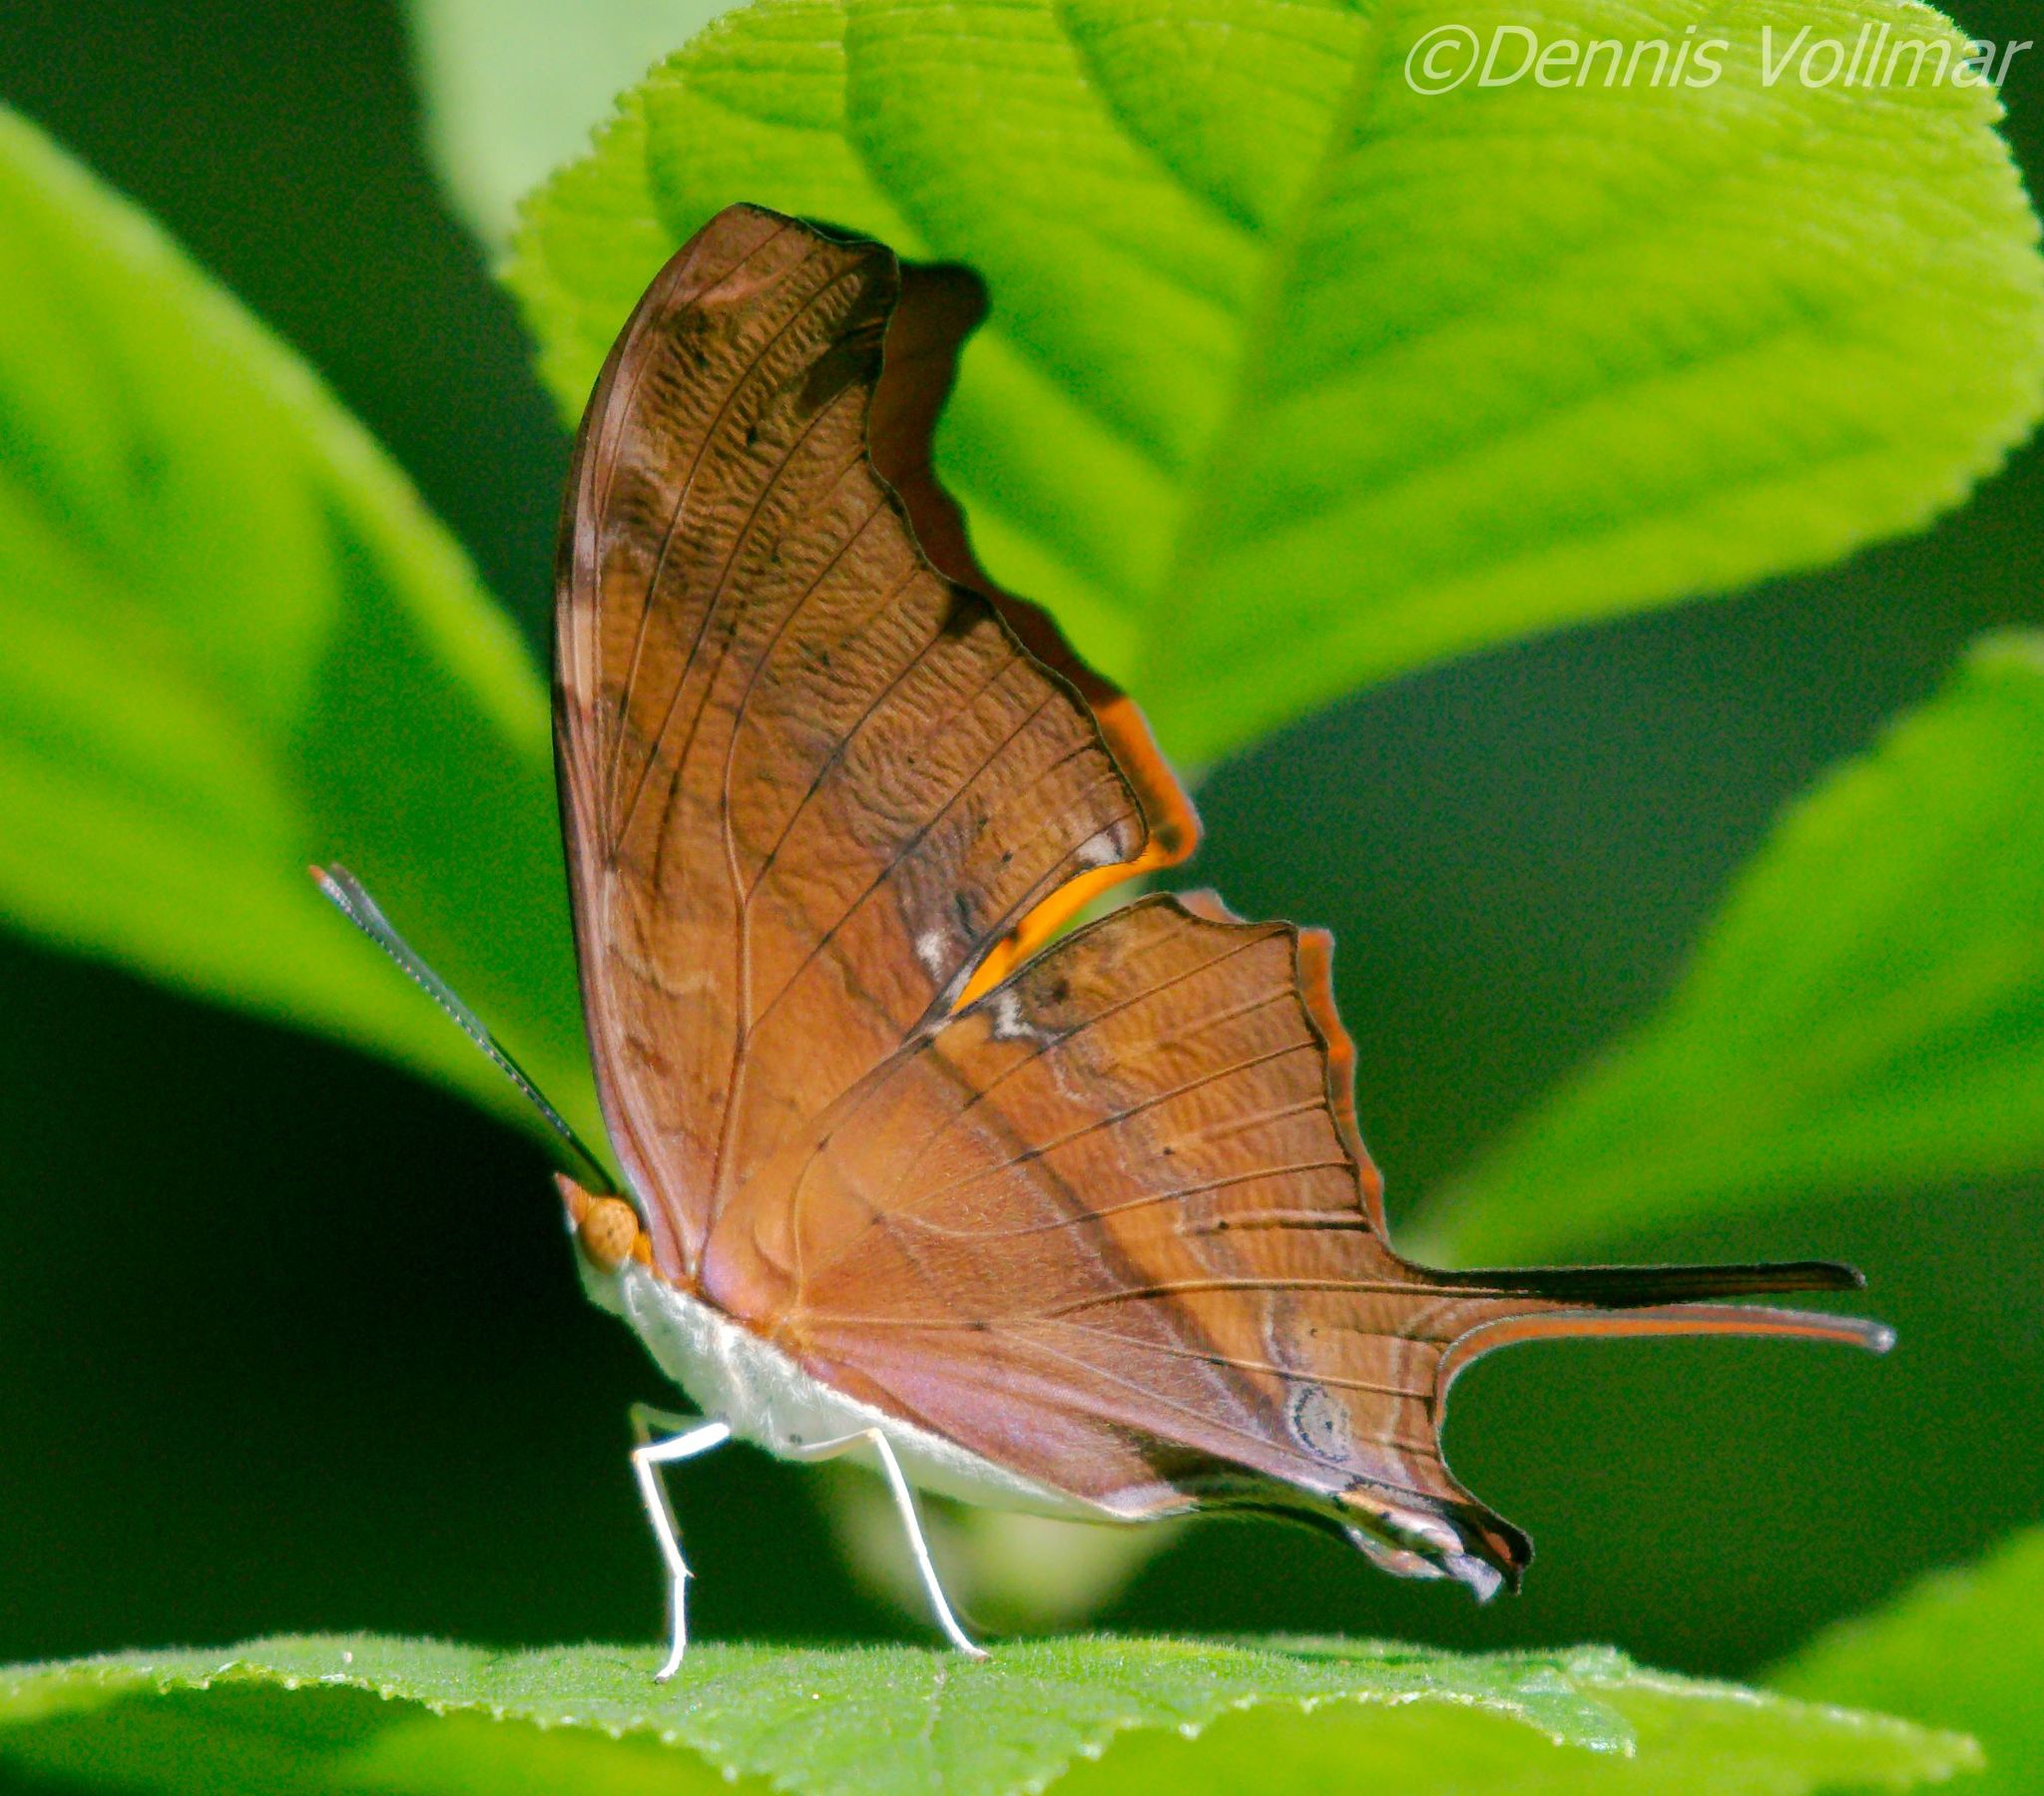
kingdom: Animalia
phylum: Arthropoda
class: Insecta
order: Lepidoptera
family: Nymphalidae
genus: Marpesia
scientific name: Marpesia petreus
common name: Red dagger wing
